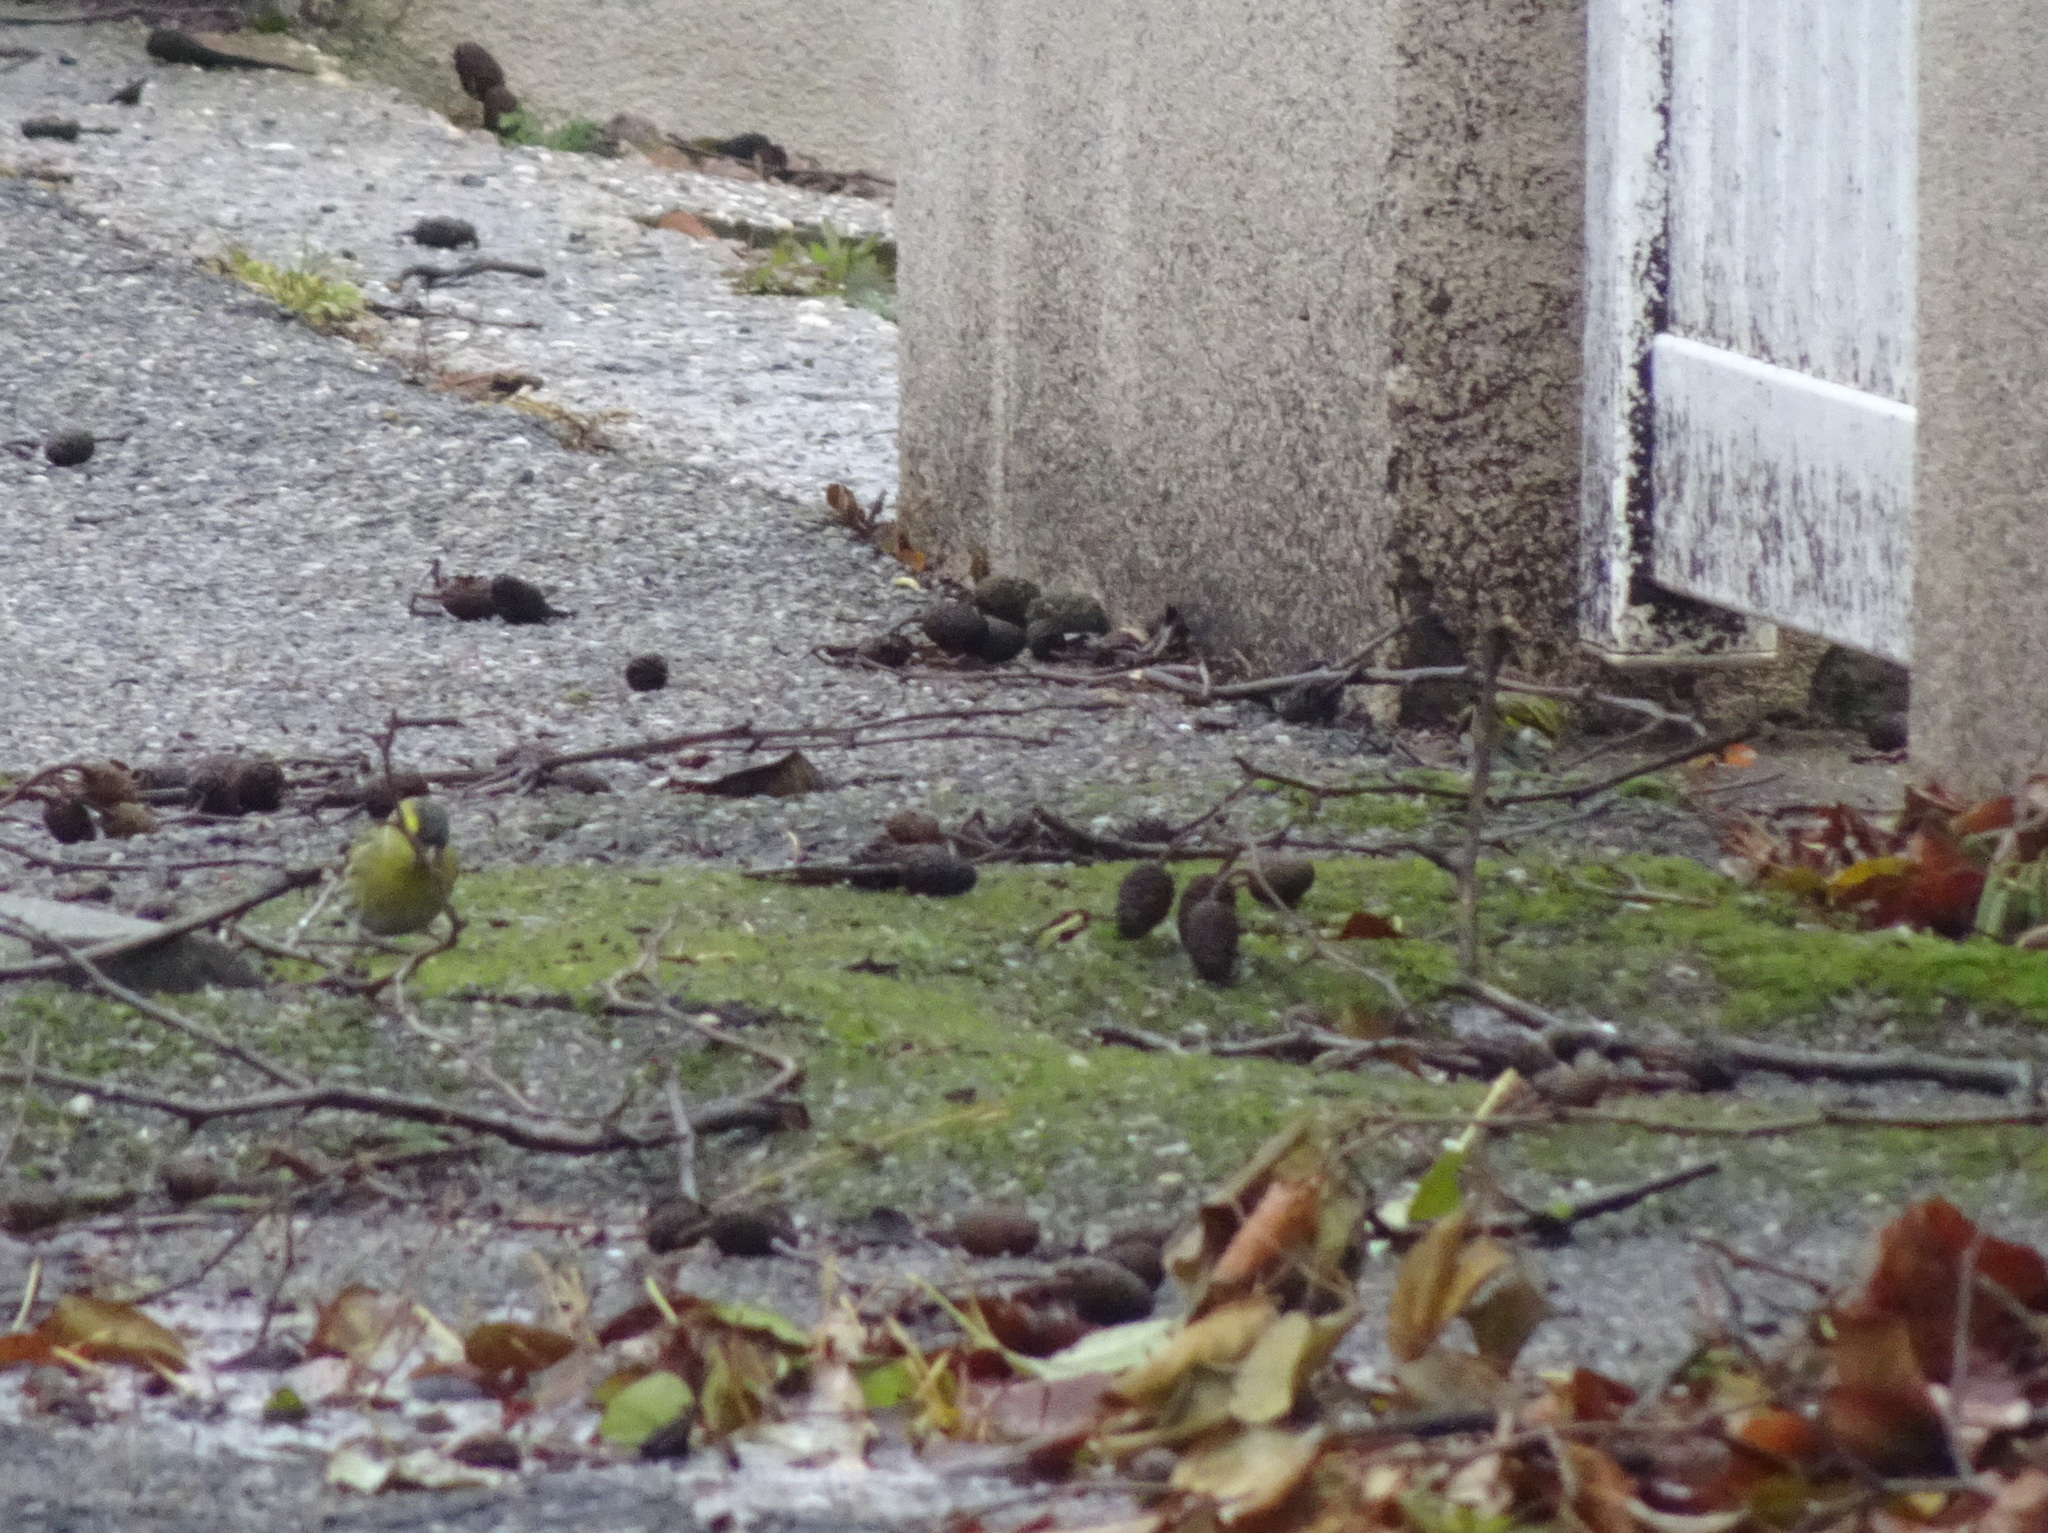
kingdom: Animalia
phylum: Chordata
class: Aves
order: Passeriformes
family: Fringillidae
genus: Spinus
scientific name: Spinus spinus
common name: Eurasian siskin
